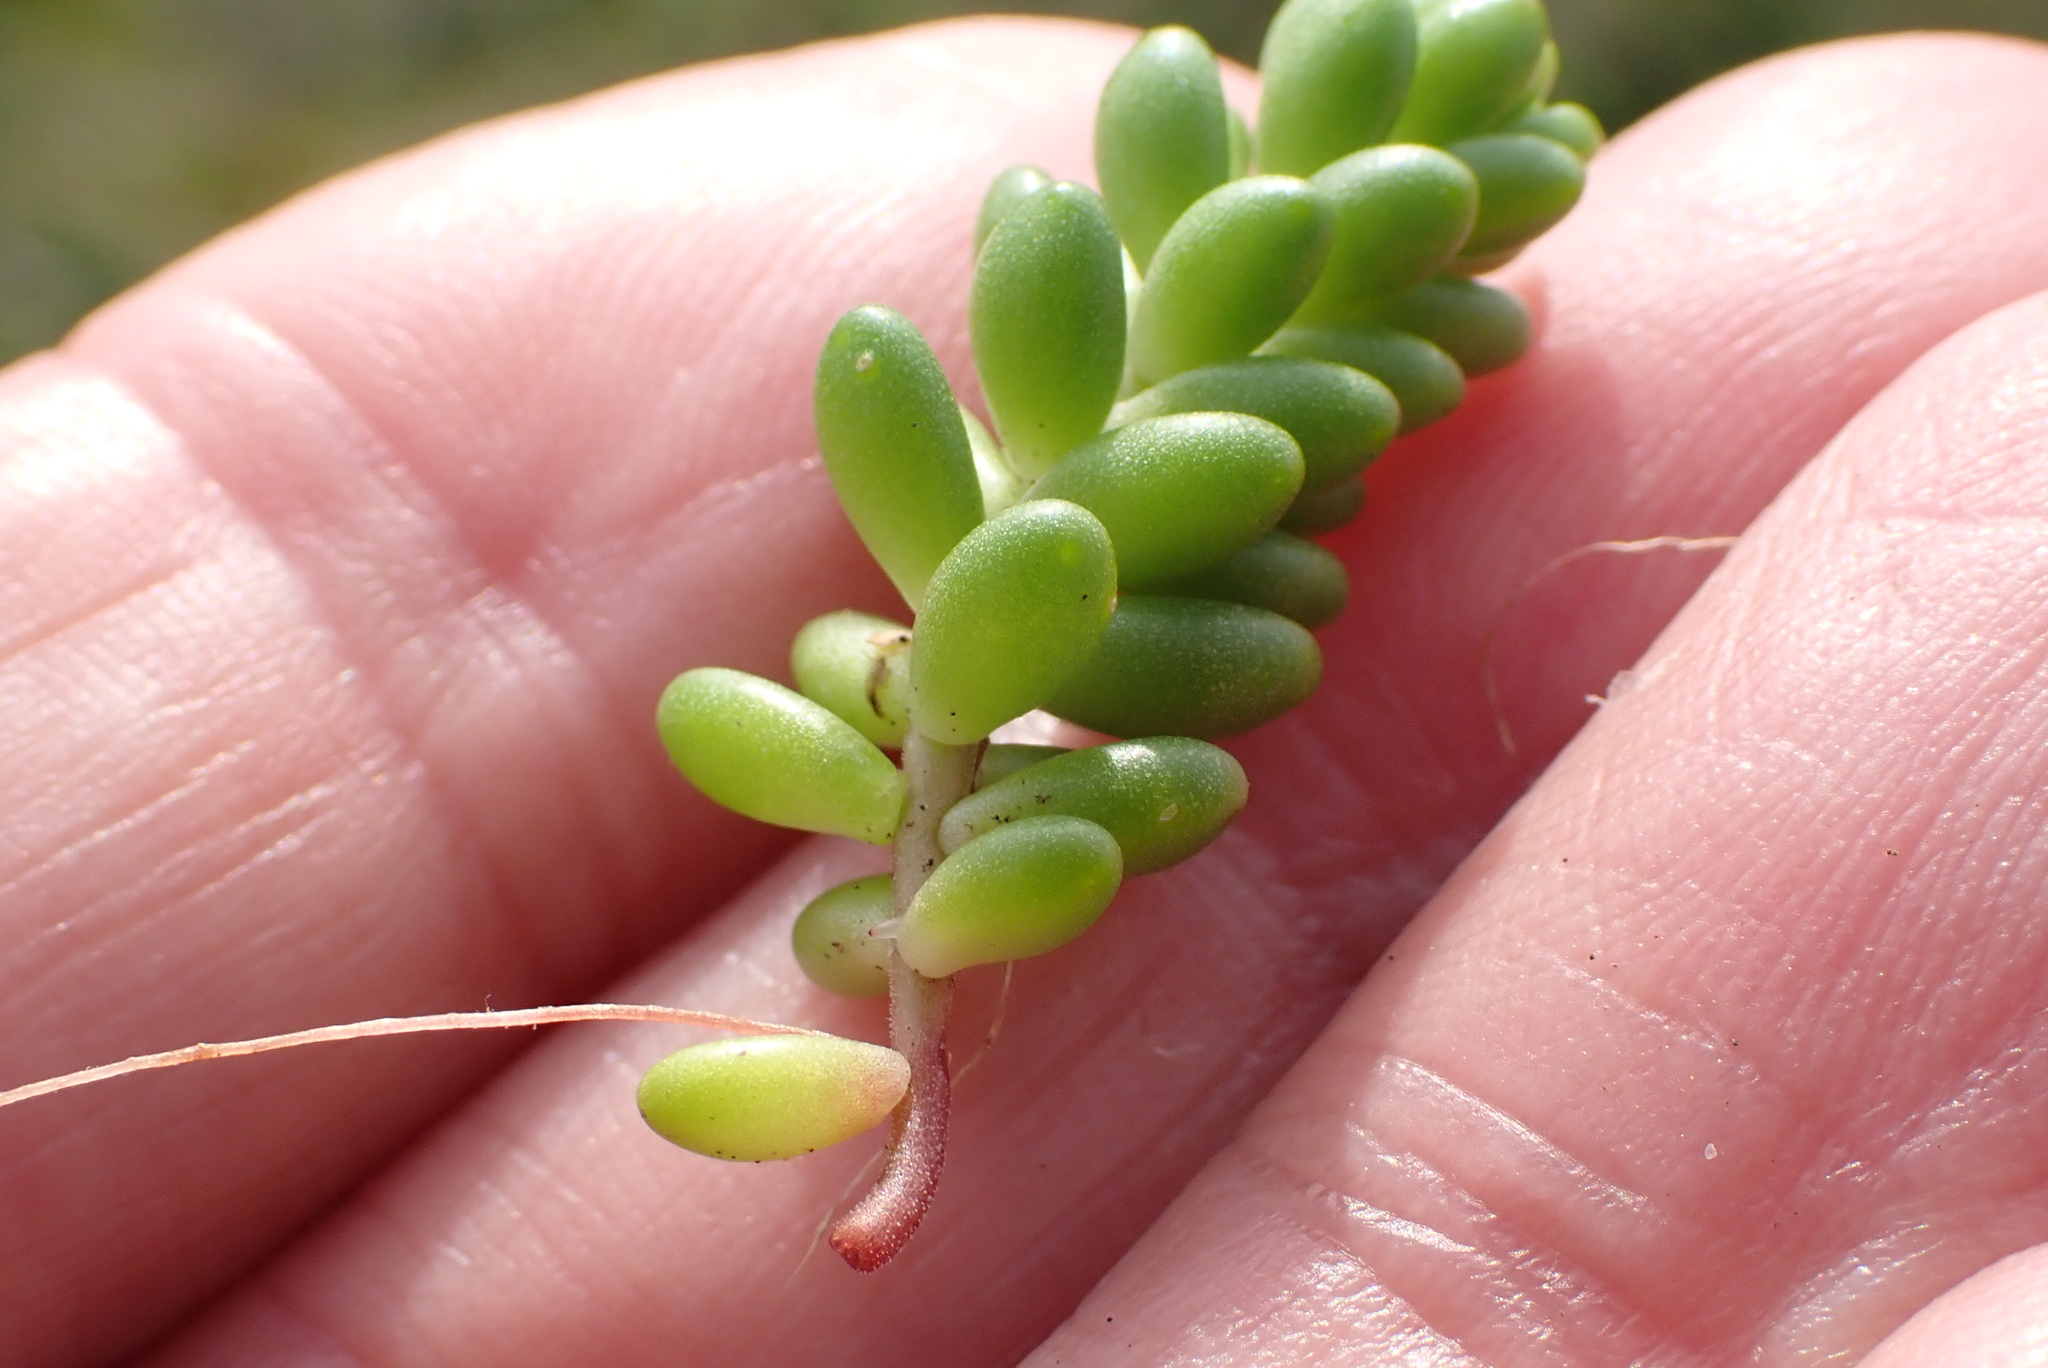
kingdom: Plantae
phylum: Tracheophyta
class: Magnoliopsida
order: Saxifragales
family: Crassulaceae
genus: Sedum
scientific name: Sedum album
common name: White stonecrop
